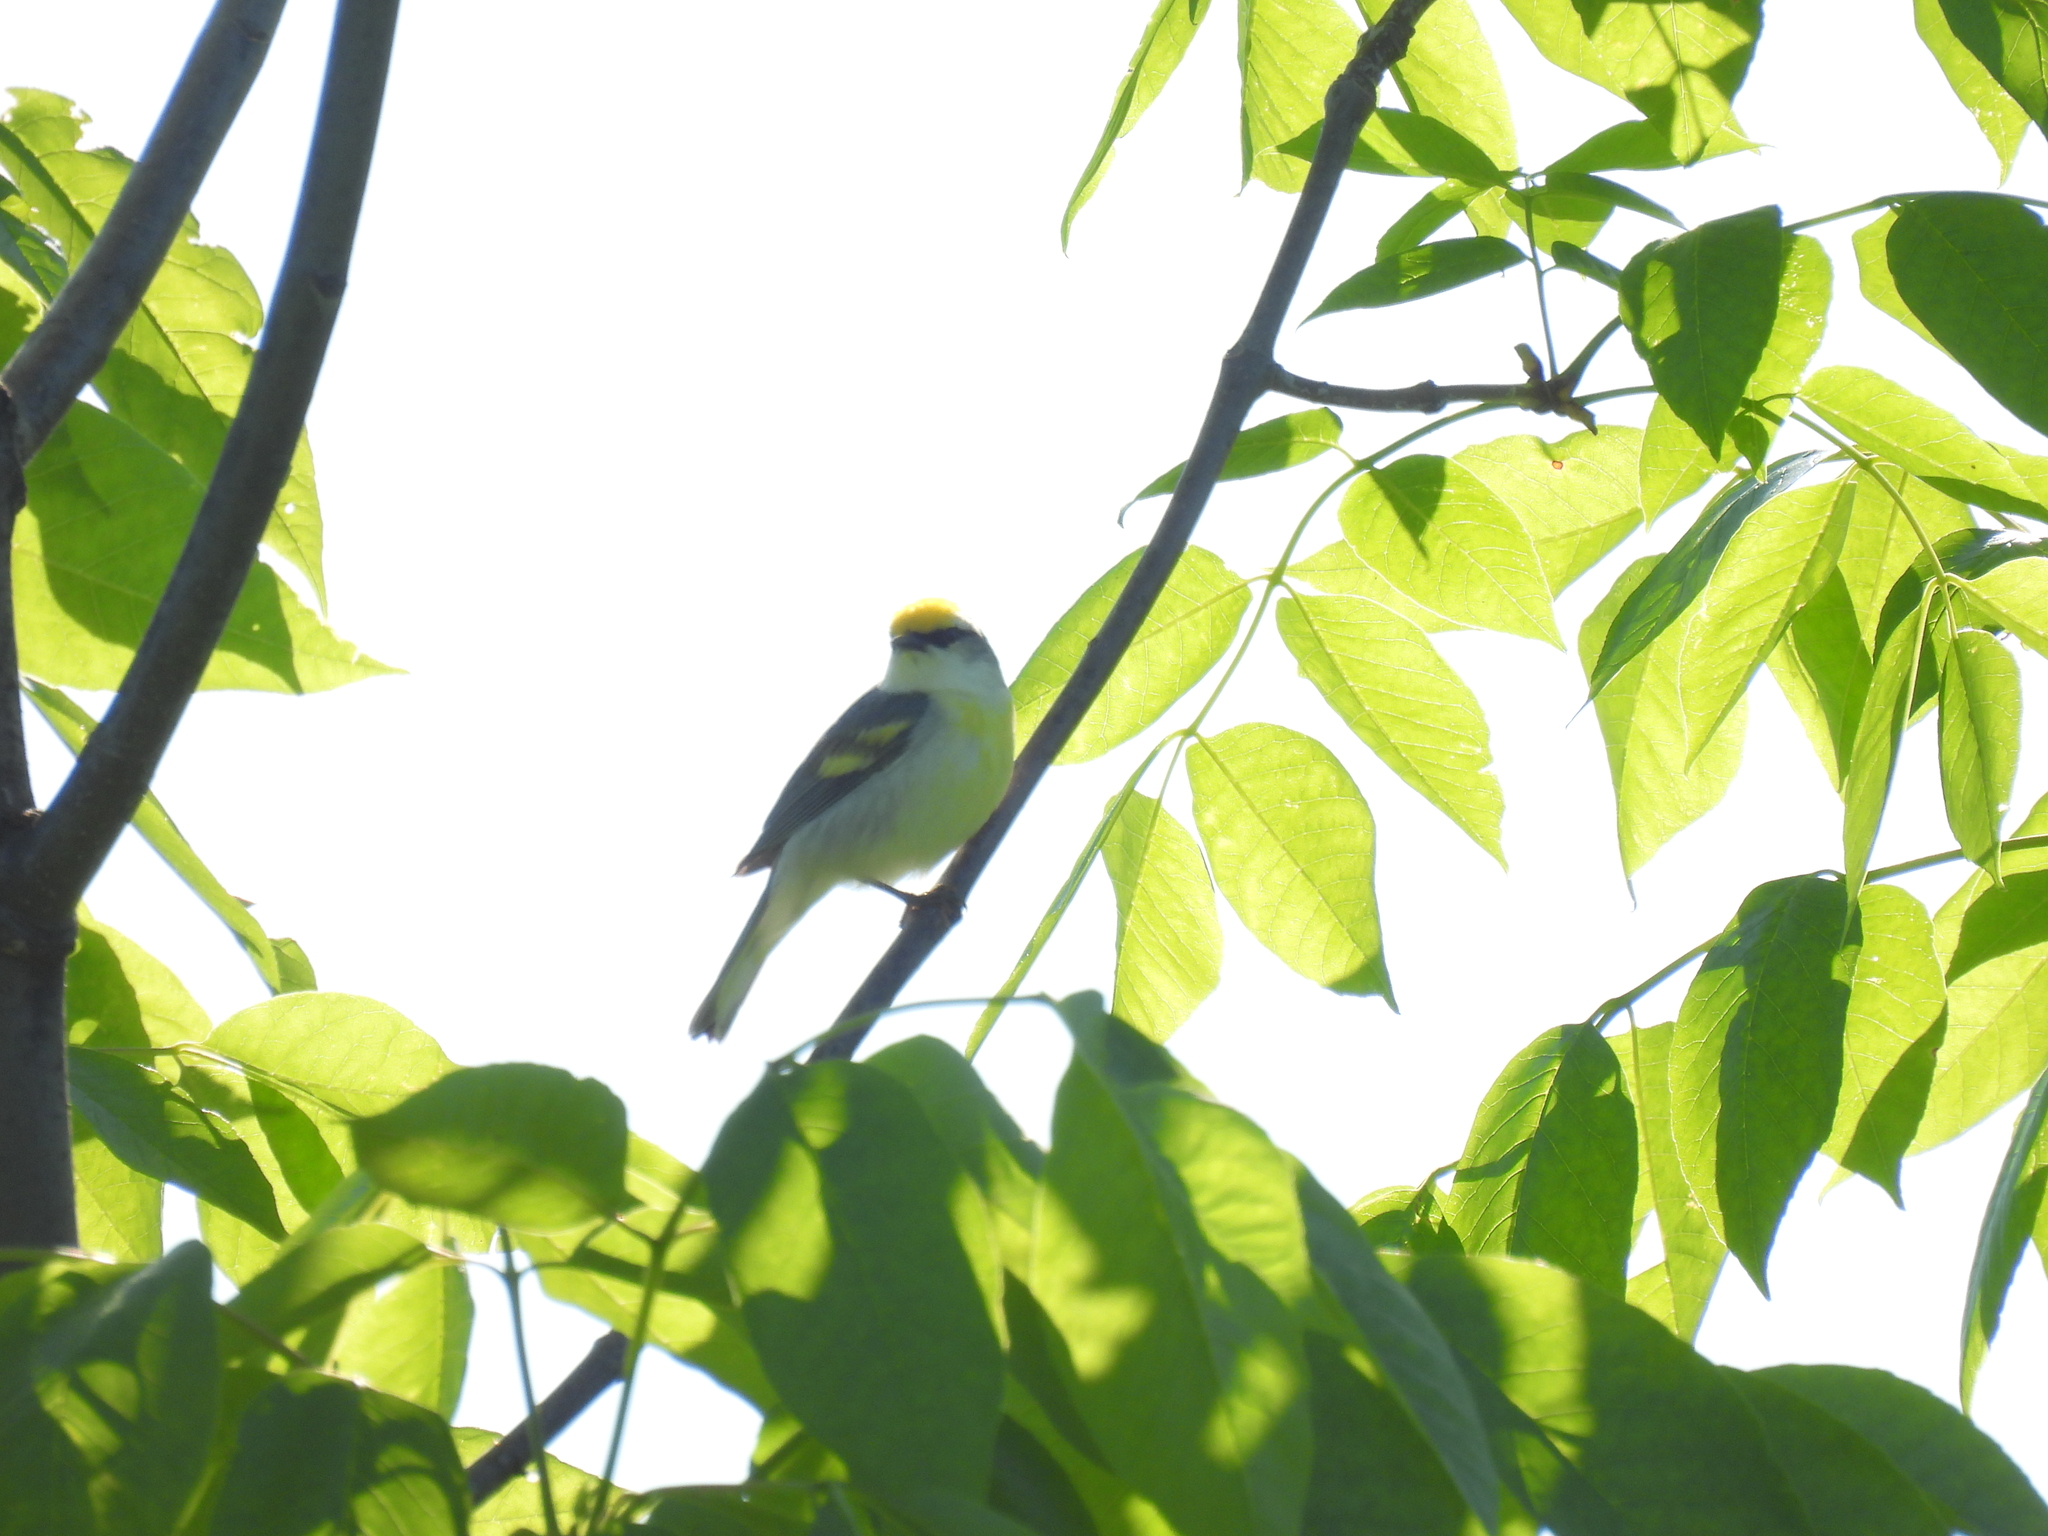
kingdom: Animalia
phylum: Chordata
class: Aves
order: Passeriformes
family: Parulidae
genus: Vermivora
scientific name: Vermivora
